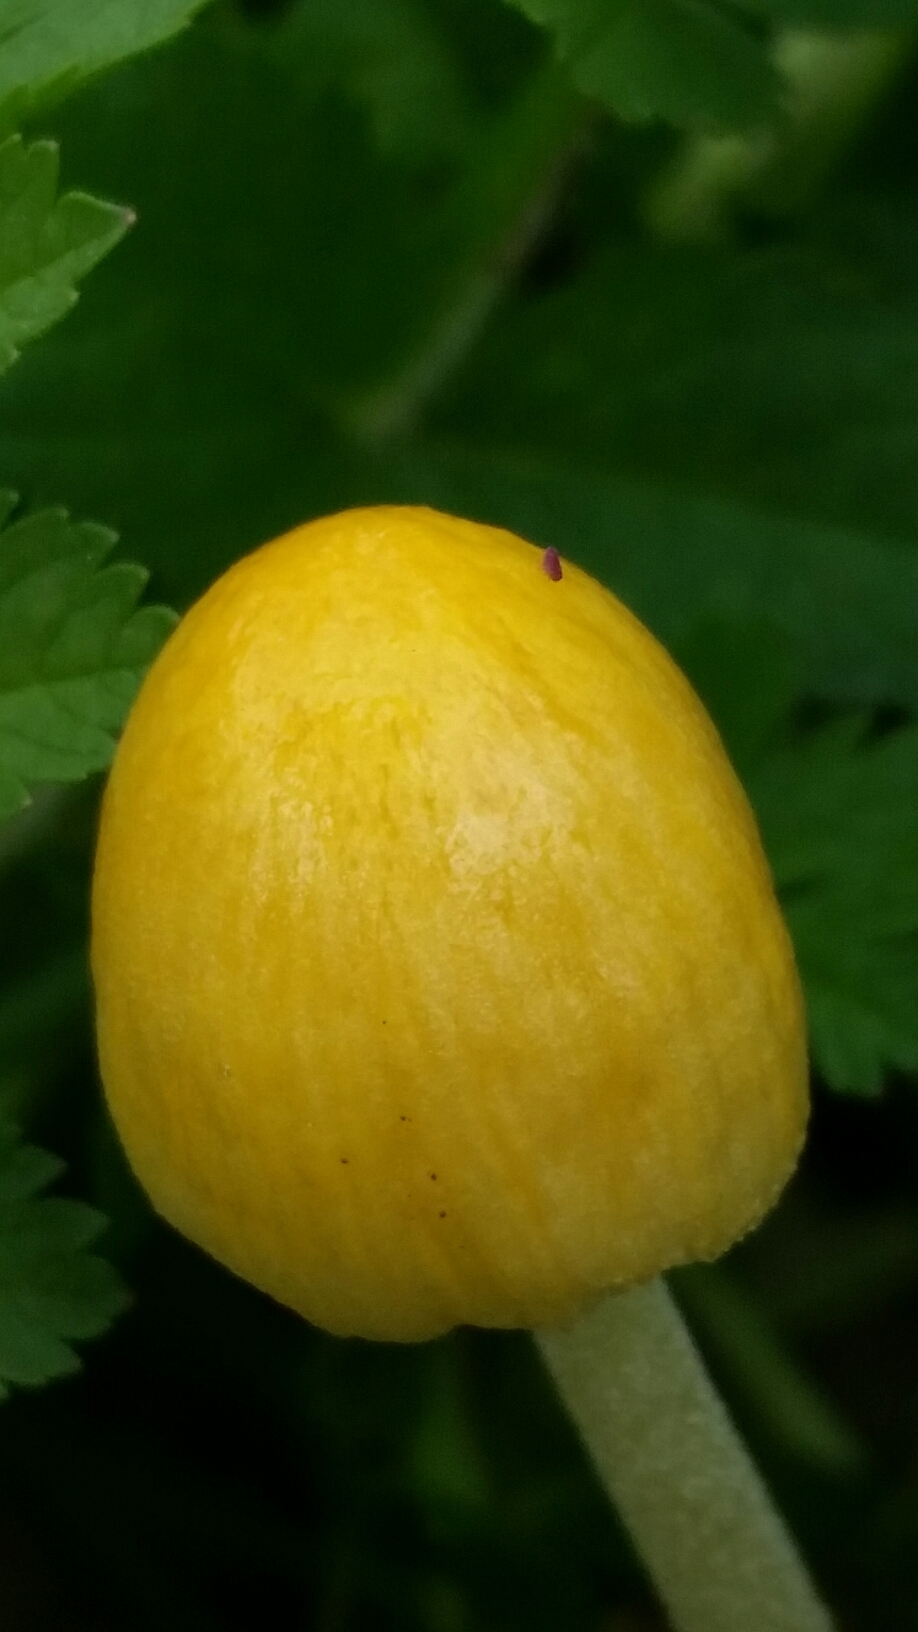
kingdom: Fungi
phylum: Basidiomycota
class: Agaricomycetes
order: Agaricales
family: Bolbitiaceae
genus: Bolbitius
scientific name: Bolbitius titubans
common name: Yellow fieldcap
